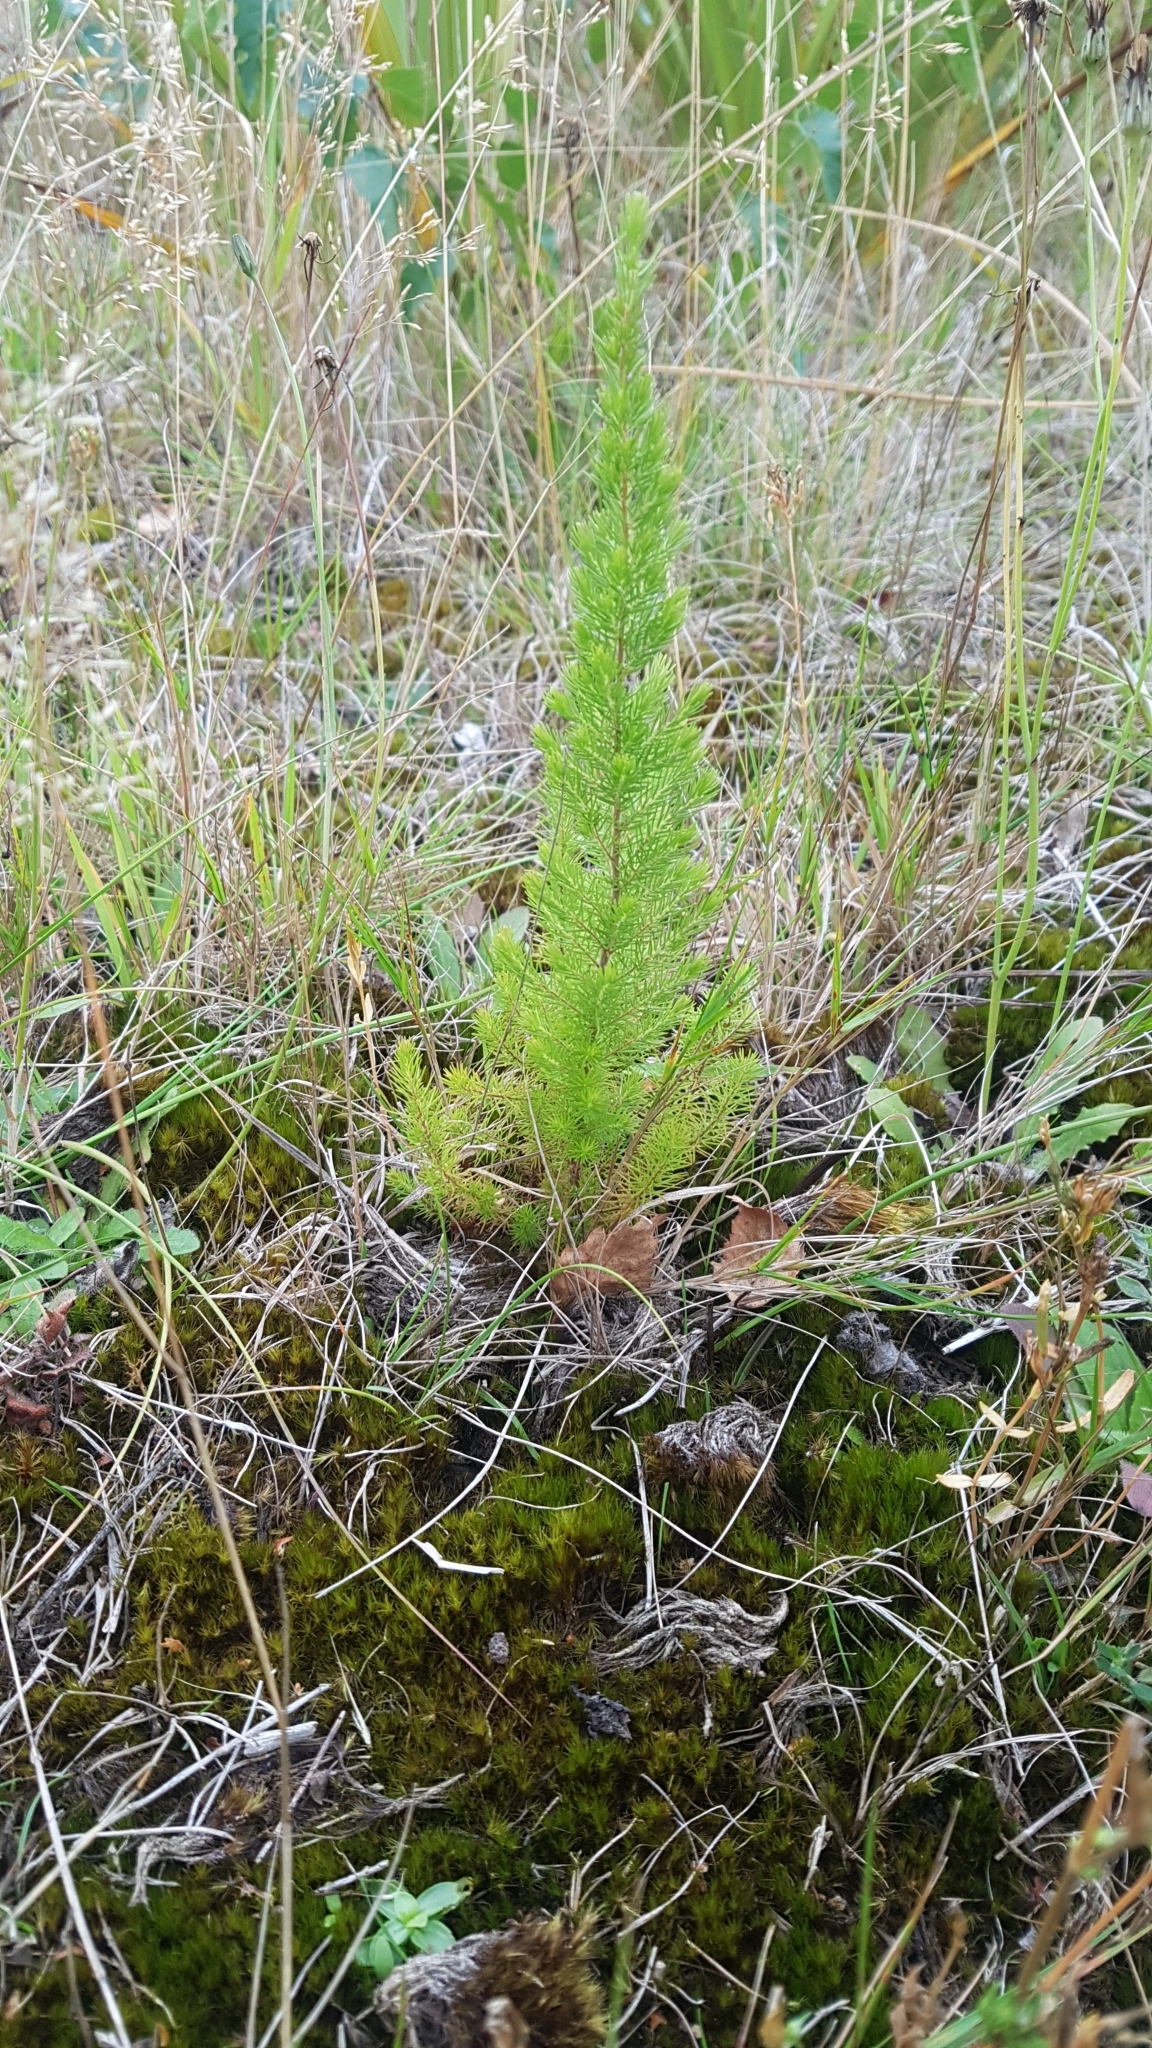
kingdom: Plantae
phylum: Tracheophyta
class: Magnoliopsida
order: Ericales
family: Ericaceae
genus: Erica
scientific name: Erica lusitanica
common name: Spanish heath
